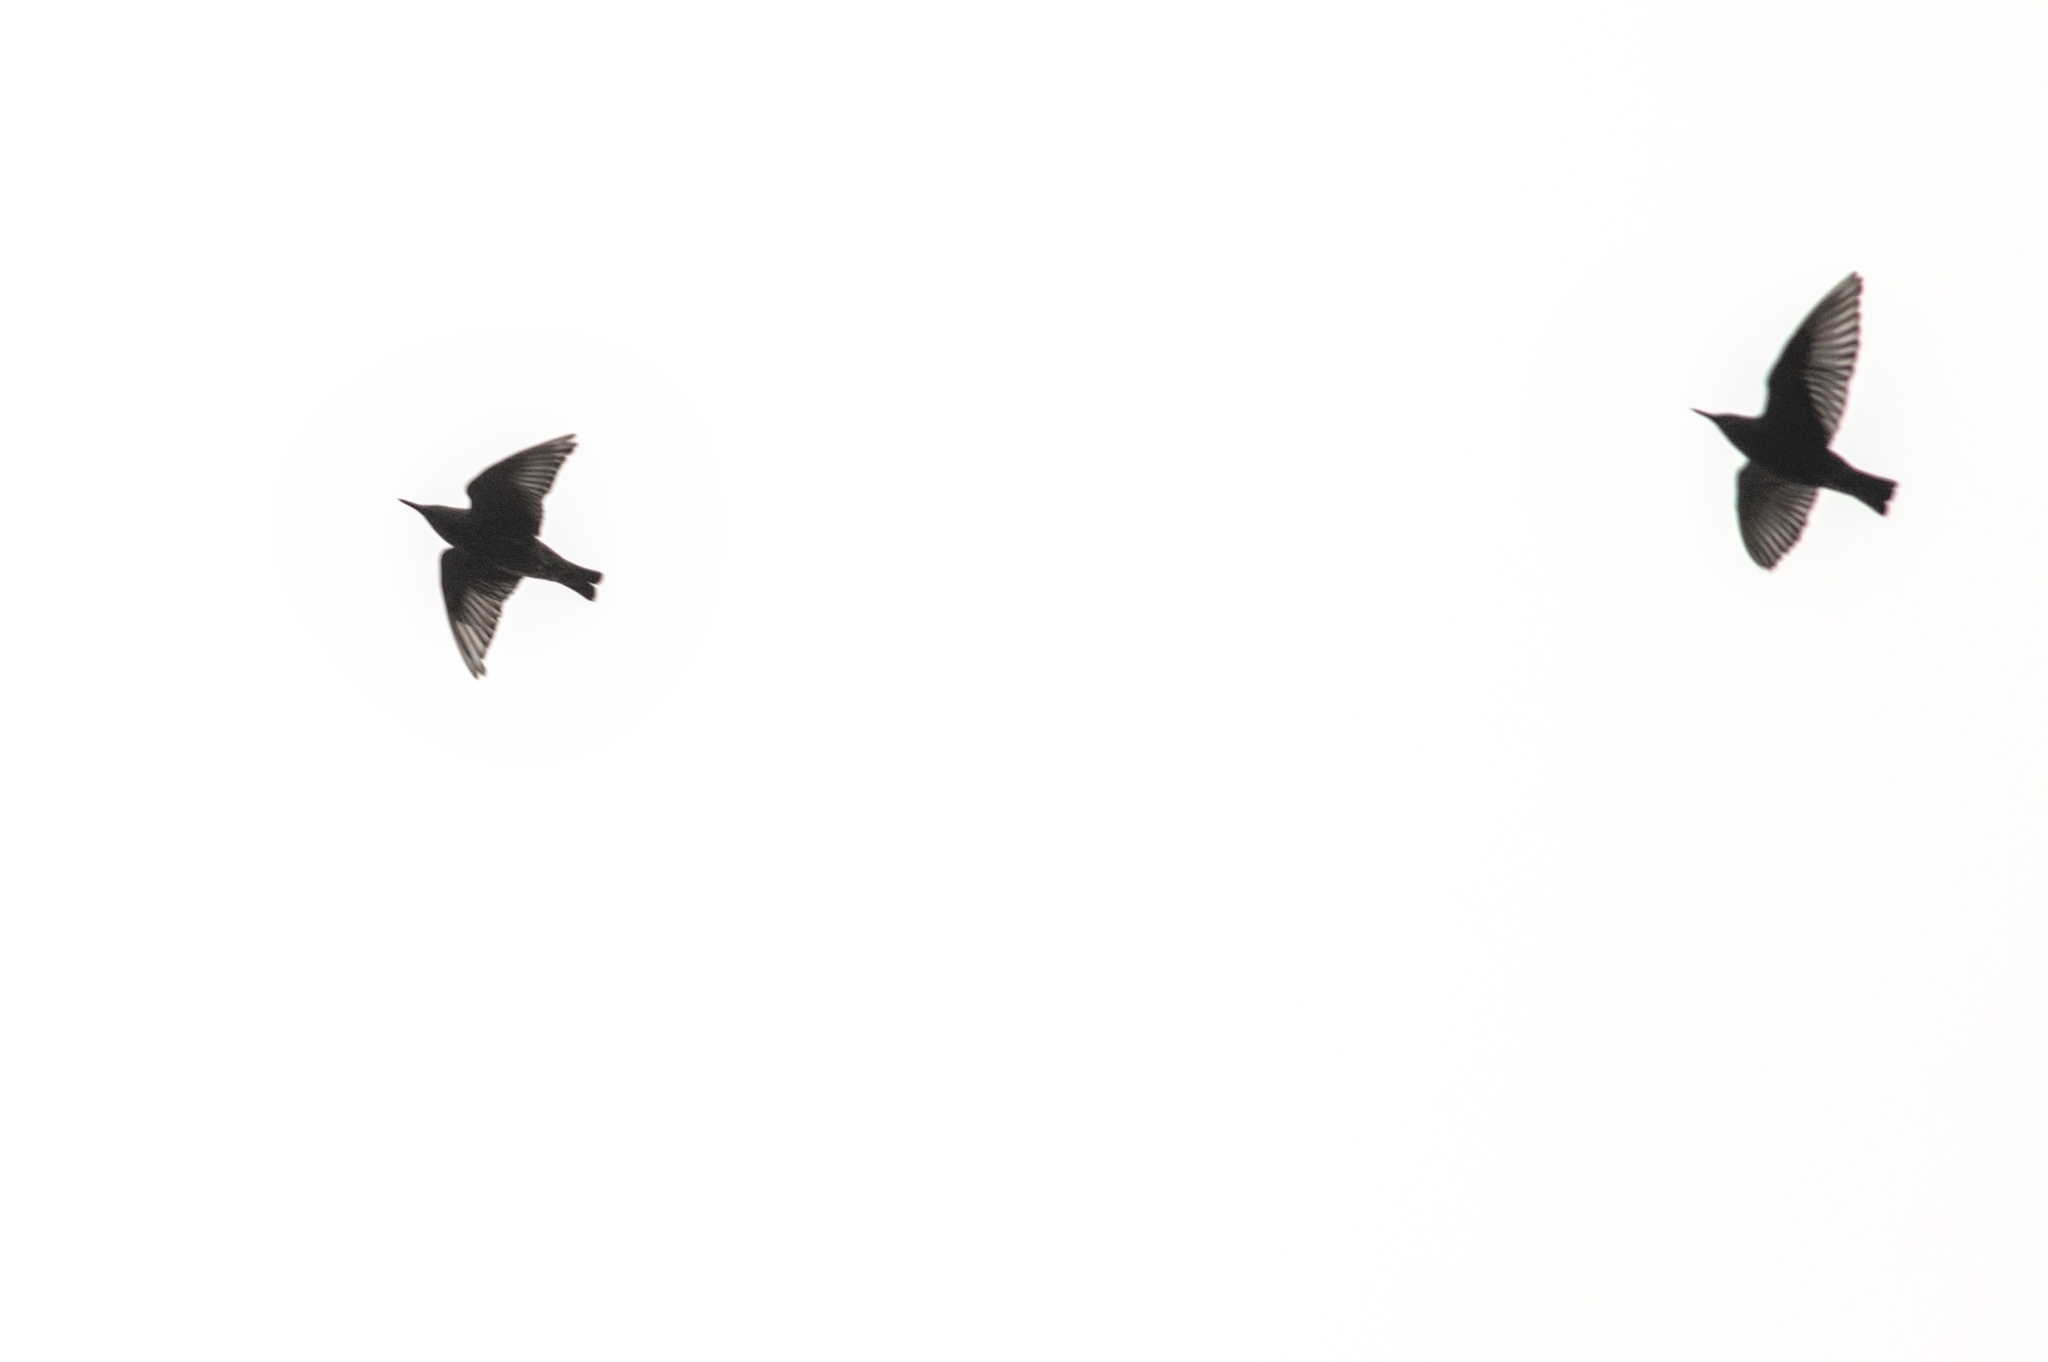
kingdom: Animalia
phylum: Chordata
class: Aves
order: Passeriformes
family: Sturnidae
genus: Sturnus
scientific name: Sturnus vulgaris
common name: Common starling
